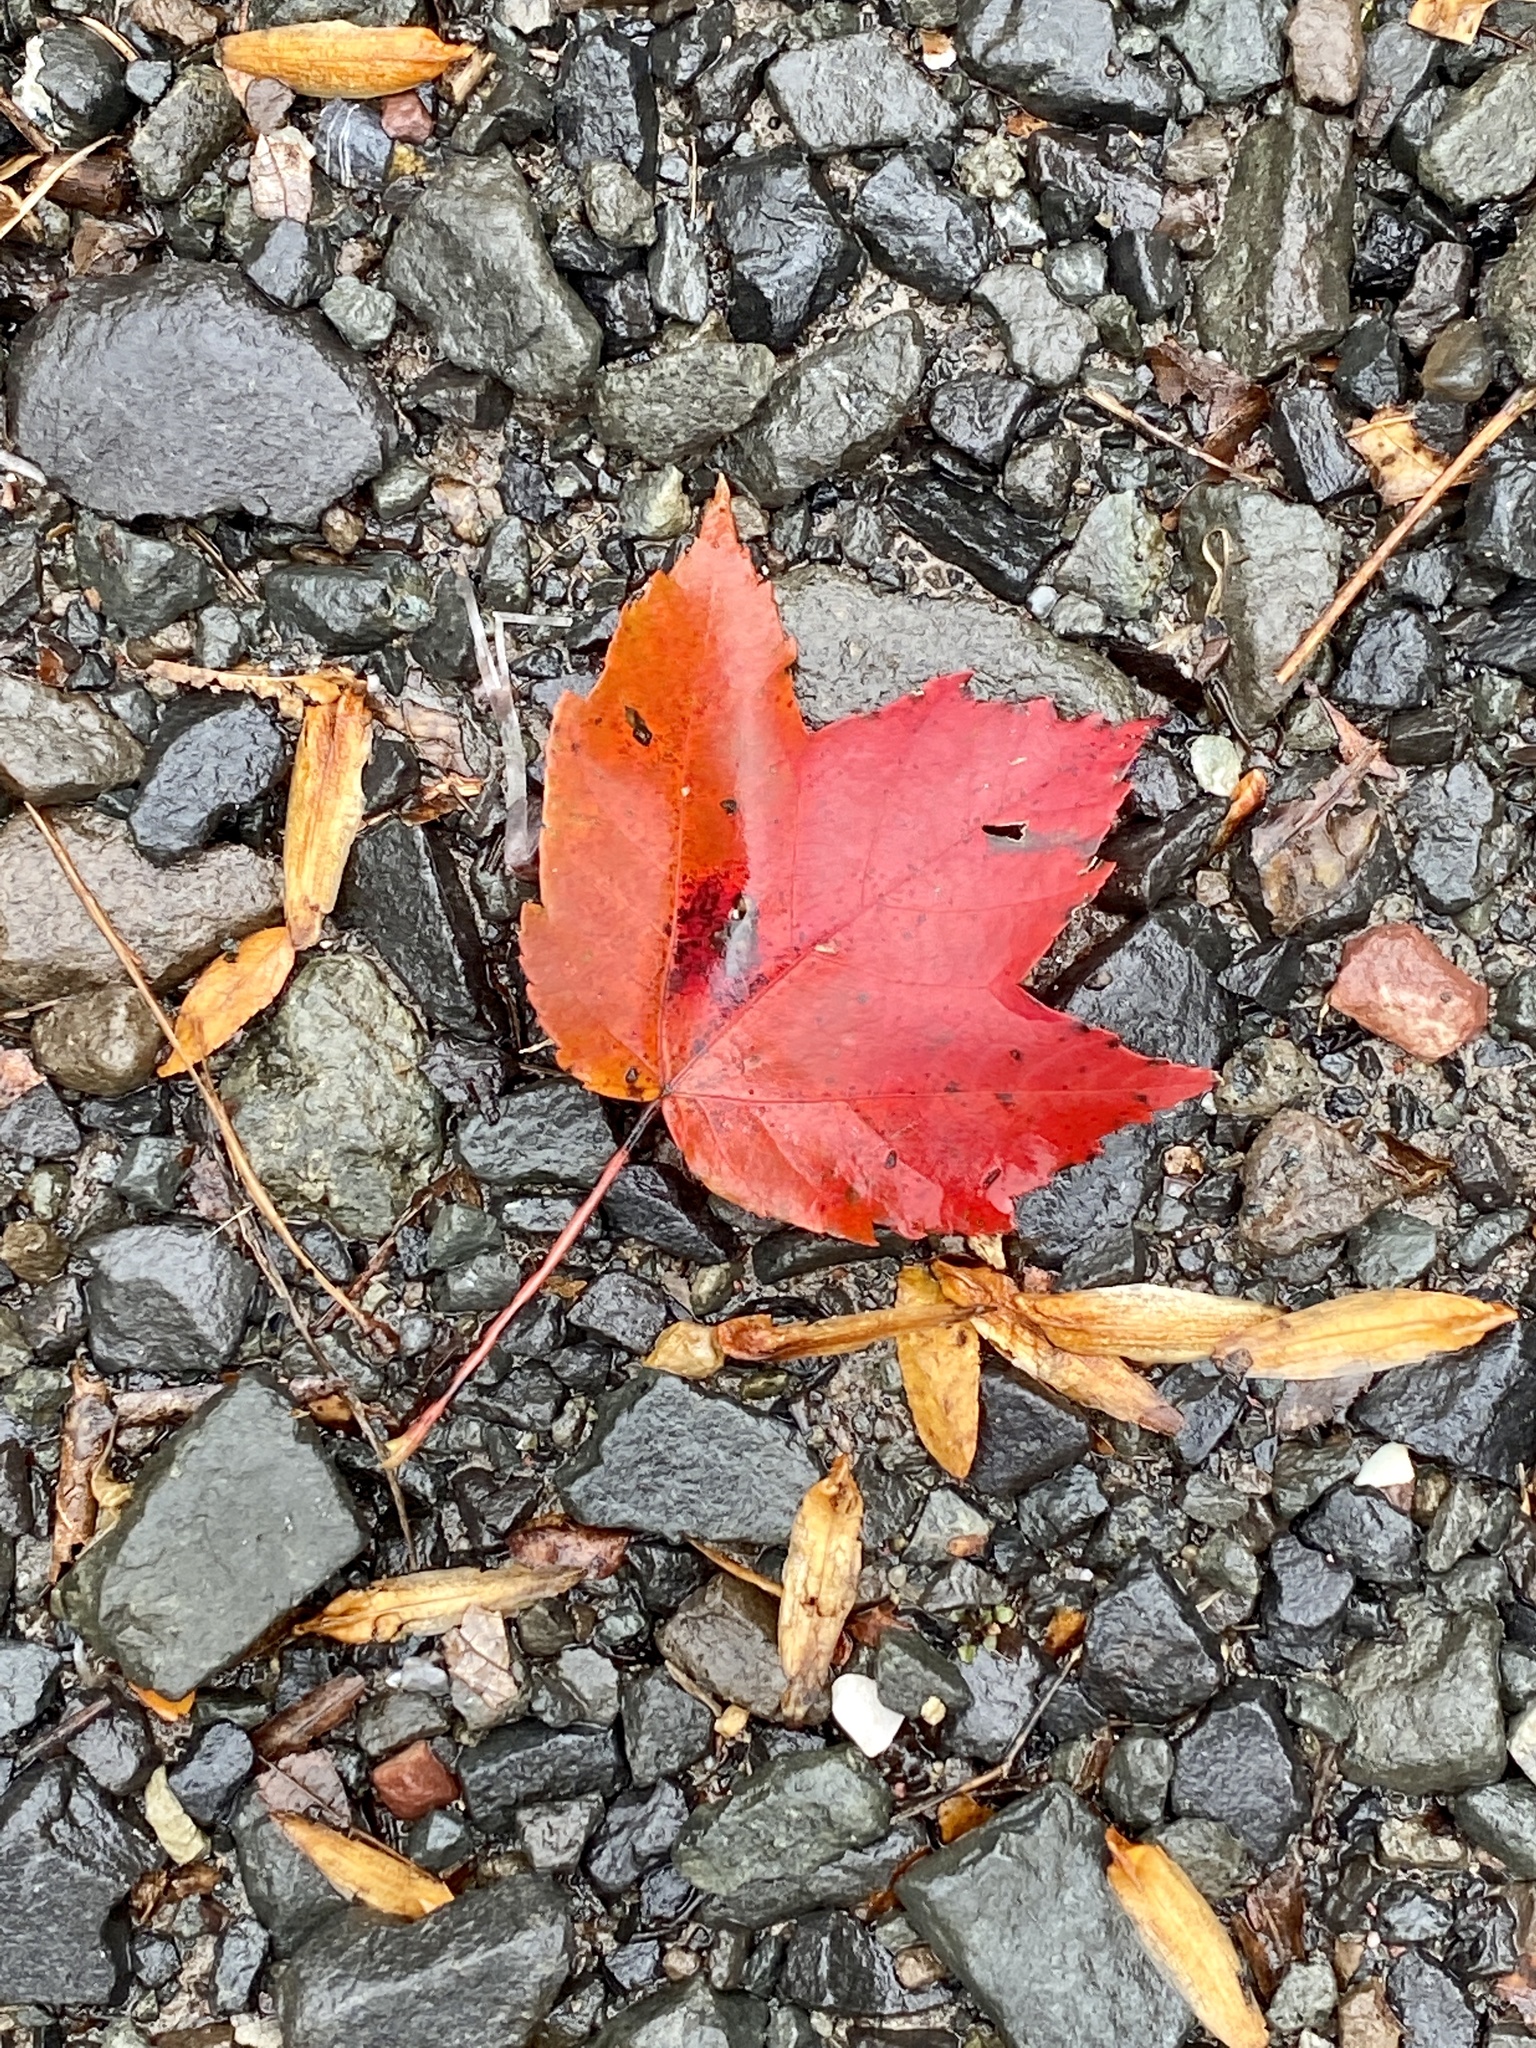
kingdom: Plantae
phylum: Tracheophyta
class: Magnoliopsida
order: Sapindales
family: Sapindaceae
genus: Acer
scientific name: Acer rubrum
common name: Red maple
